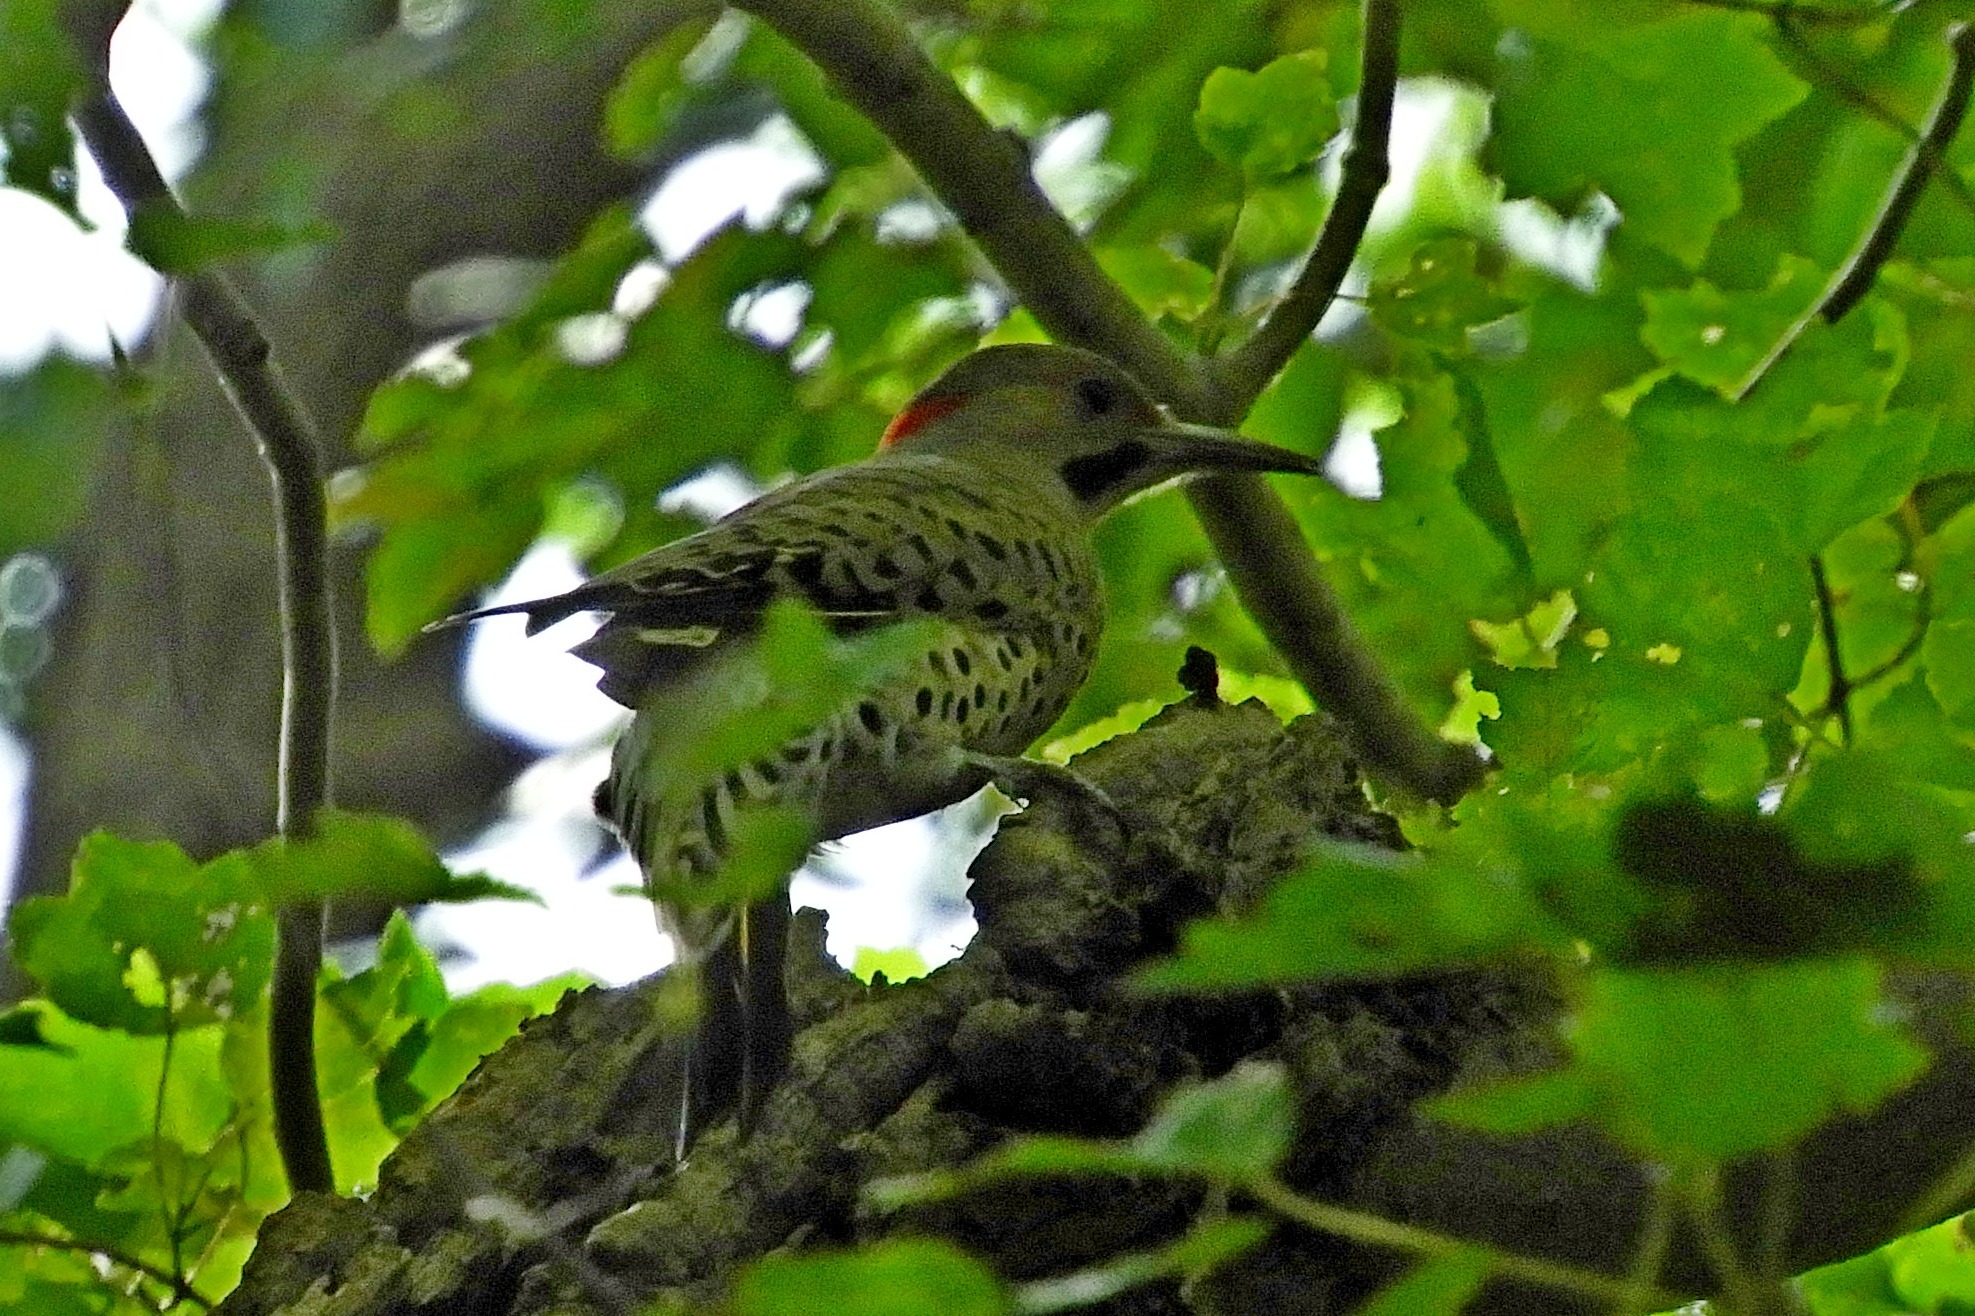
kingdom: Animalia
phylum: Chordata
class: Aves
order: Piciformes
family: Picidae
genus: Colaptes
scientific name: Colaptes auratus
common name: Northern flicker
